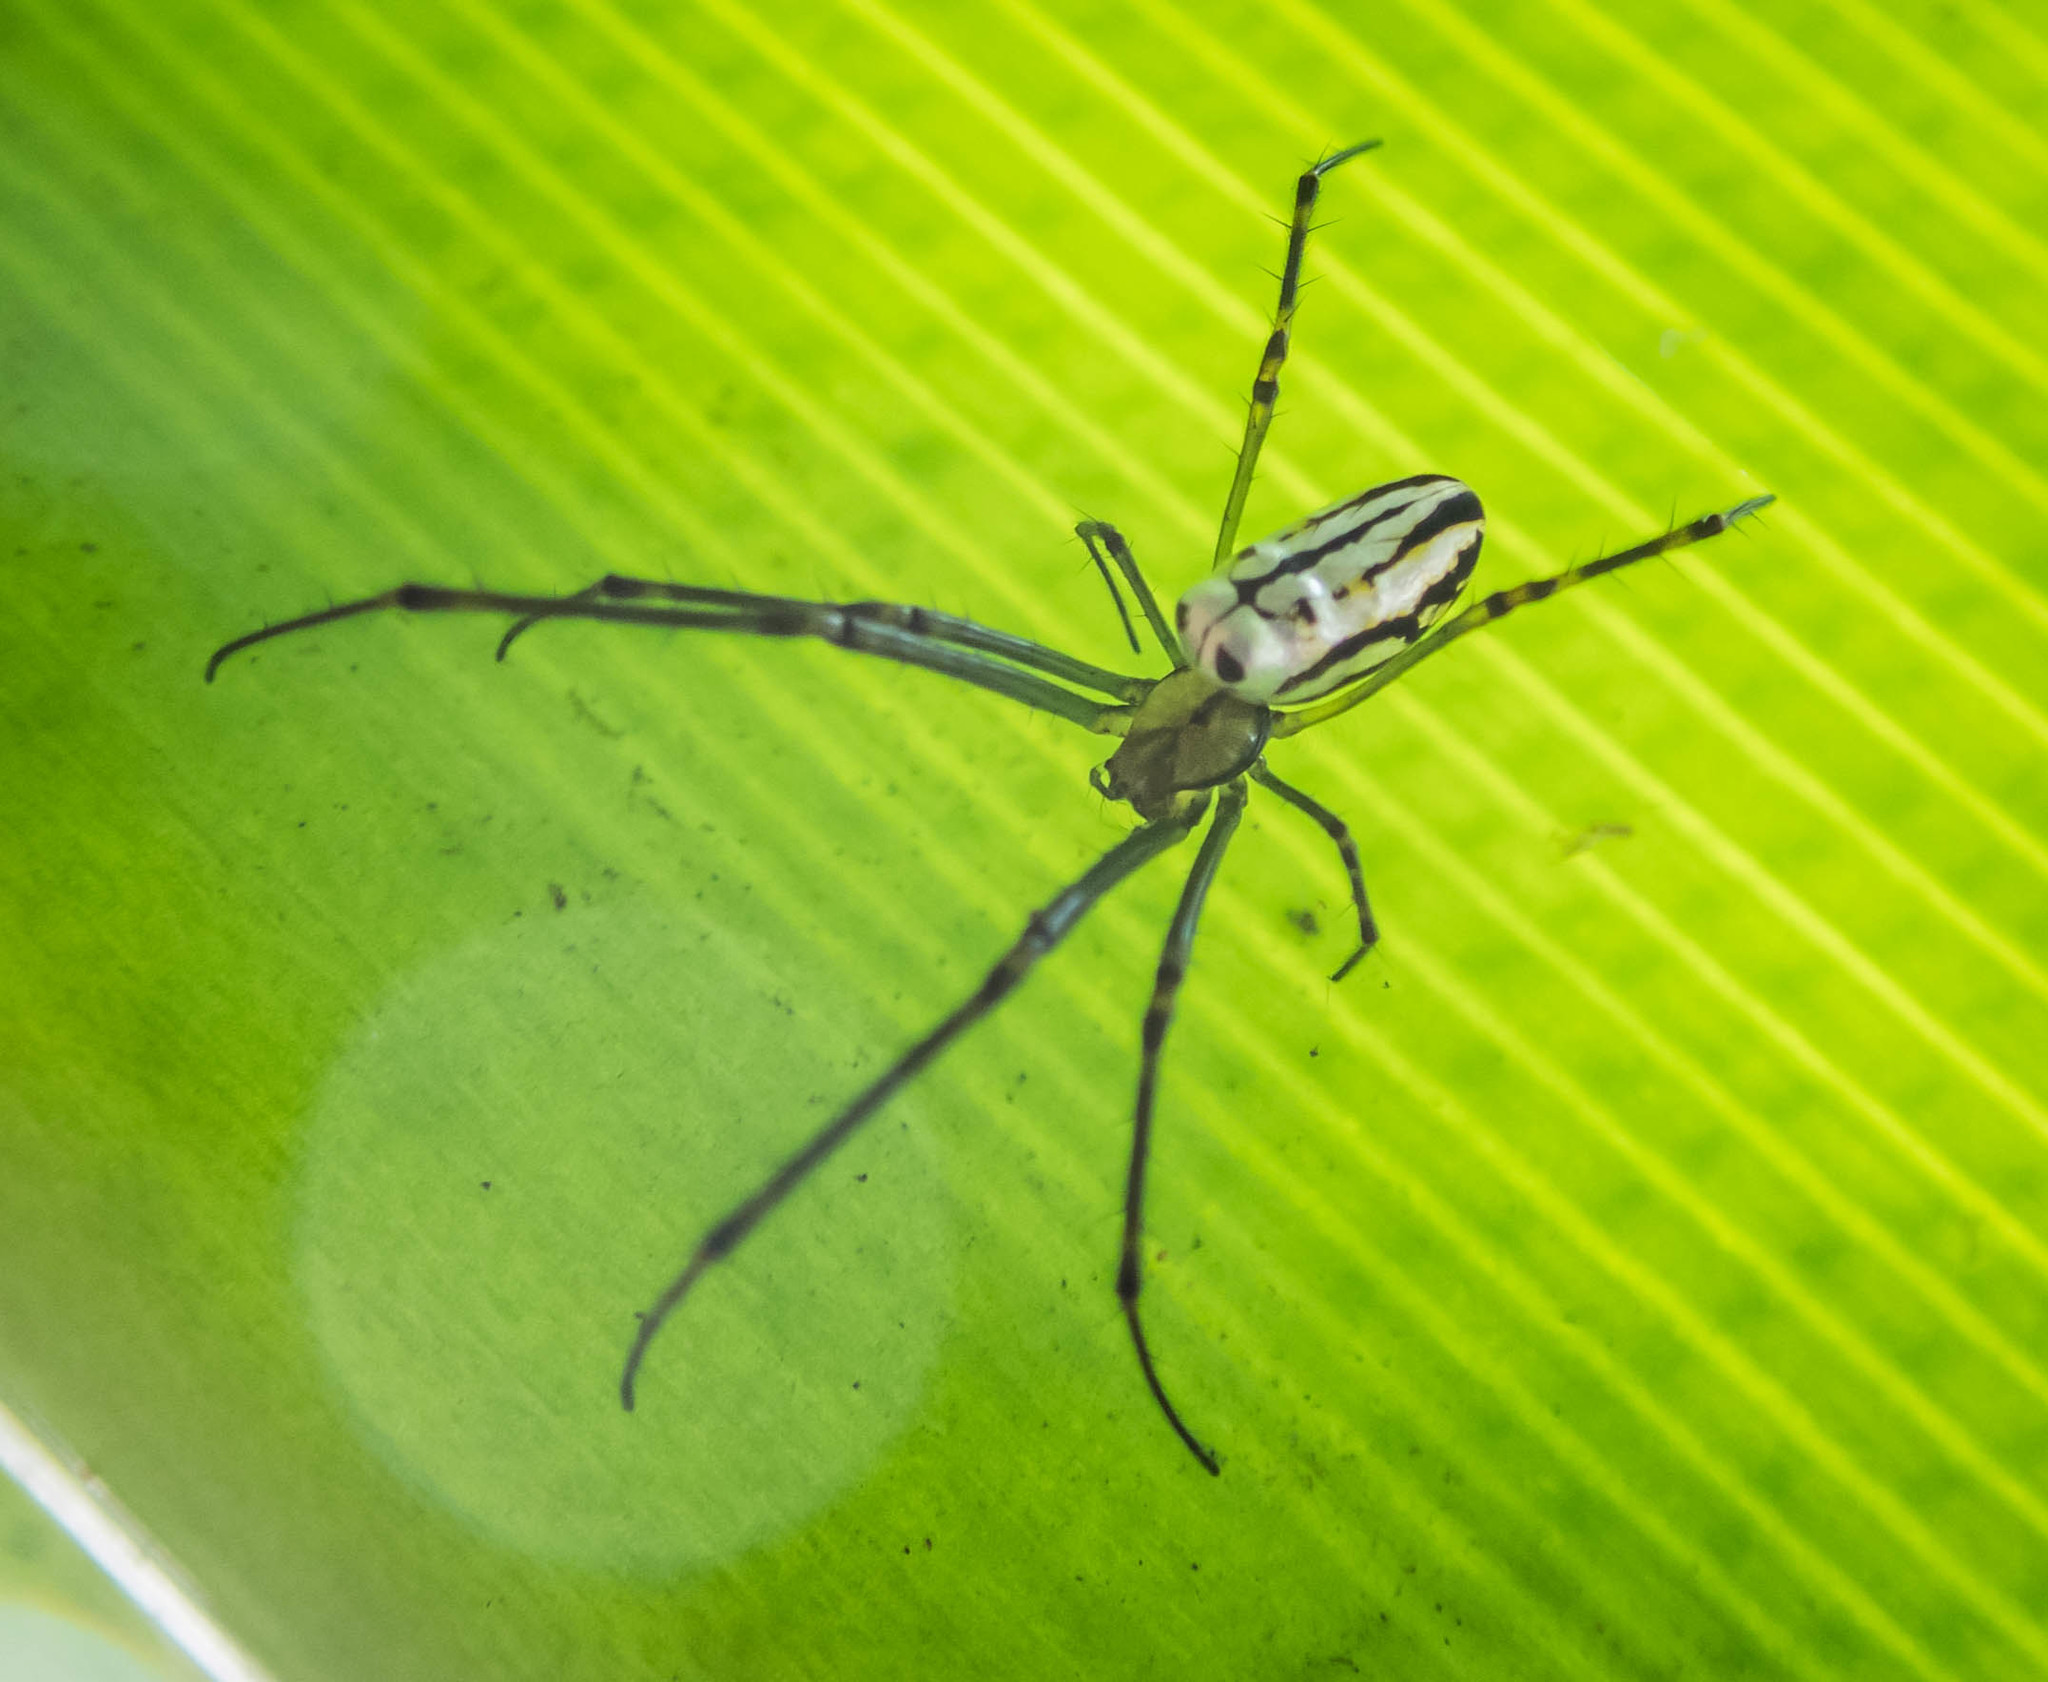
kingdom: Animalia
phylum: Arthropoda
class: Arachnida
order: Araneae
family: Tetragnathidae
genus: Leucauge
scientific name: Leucauge dromedaria
